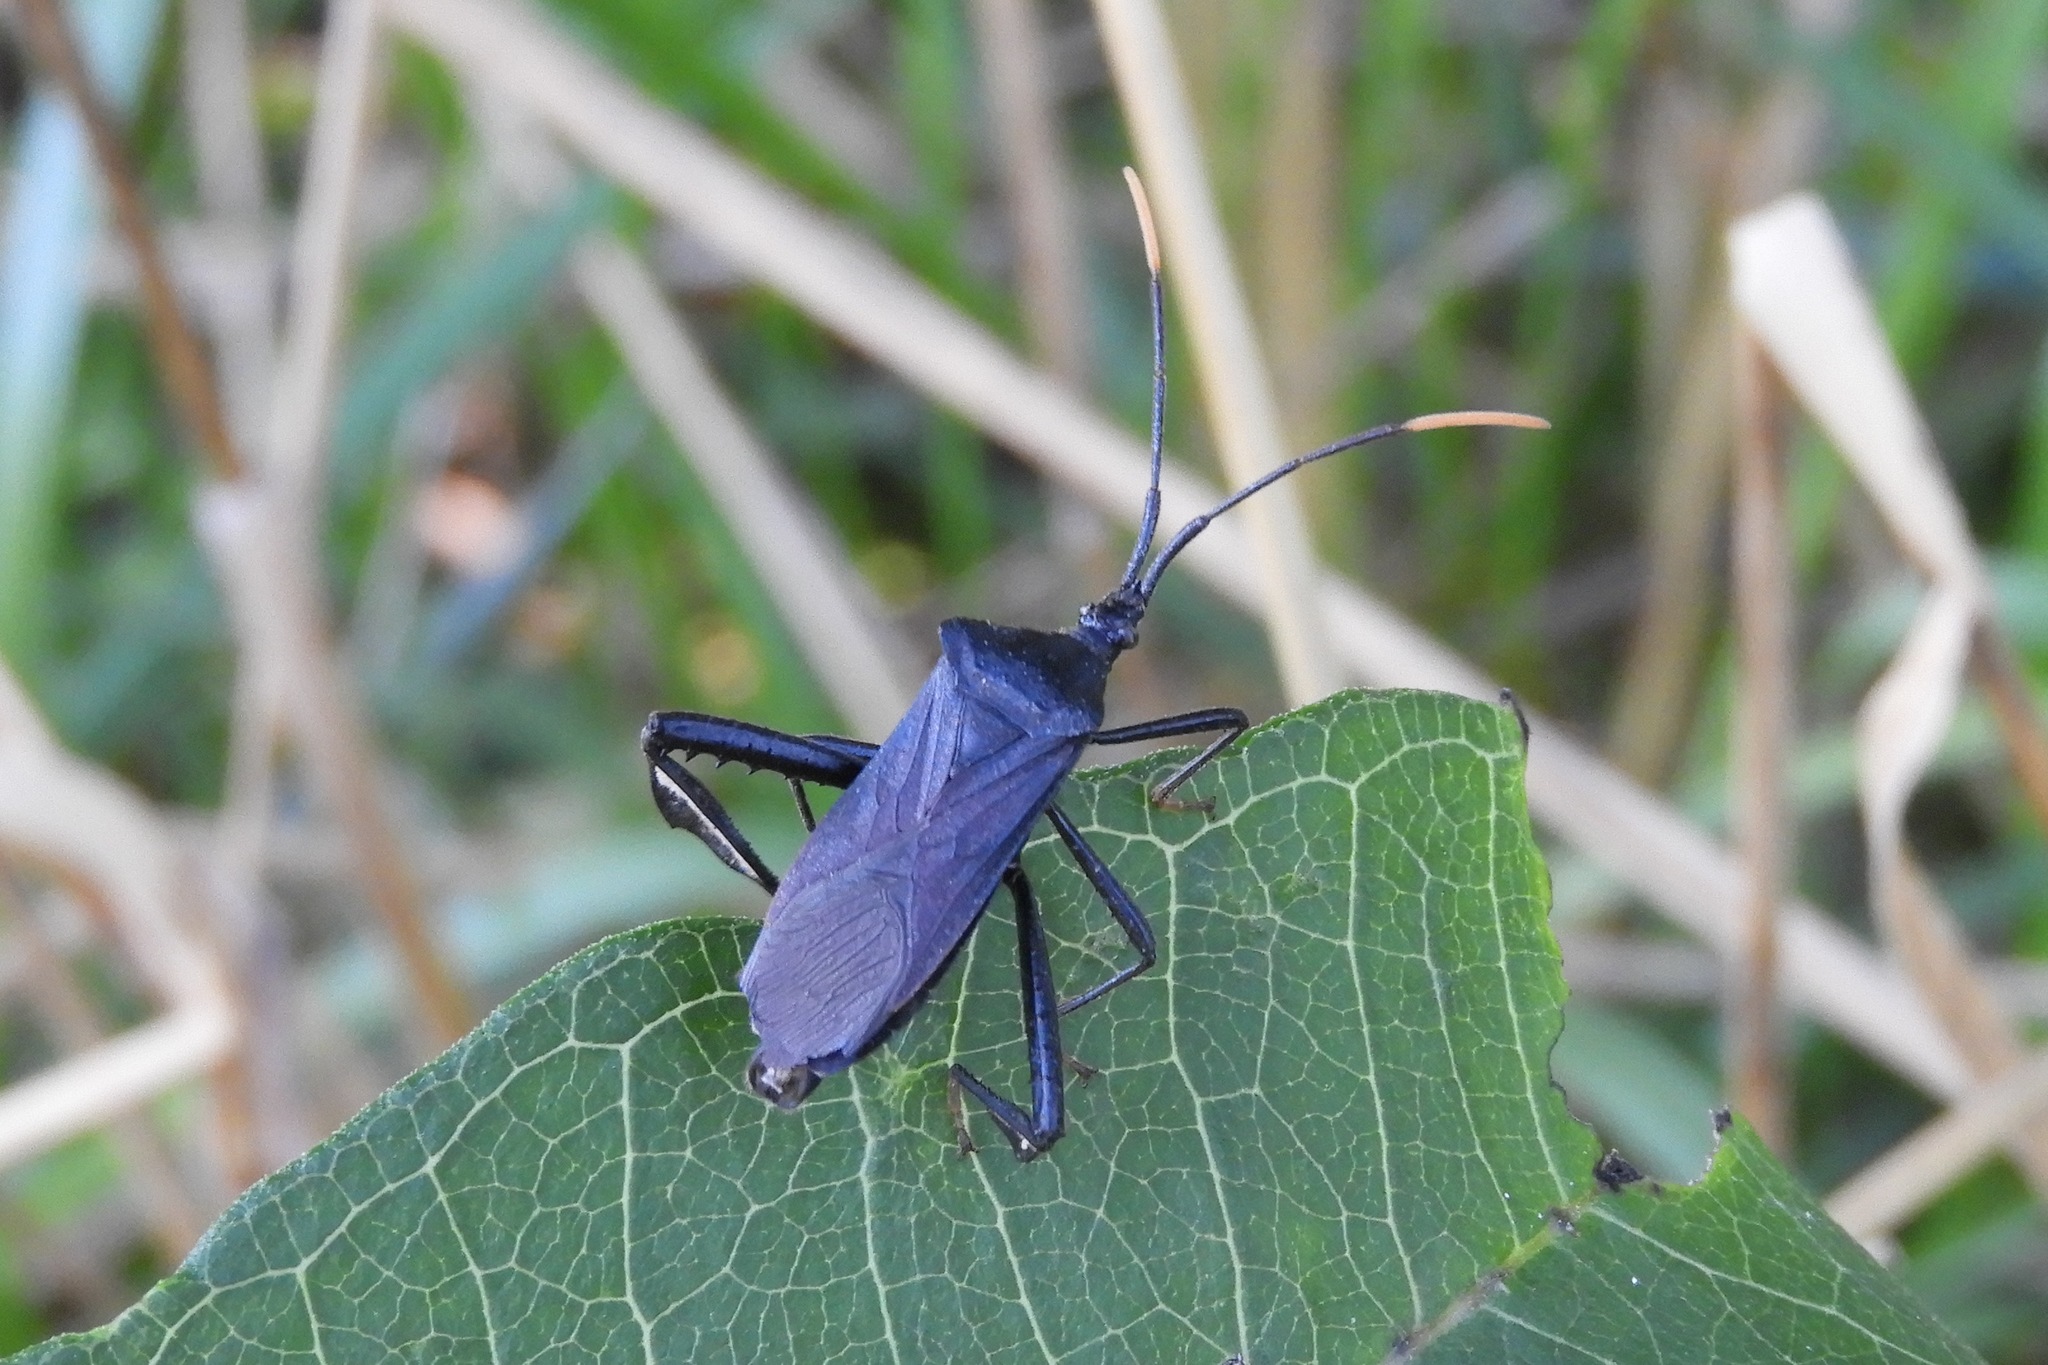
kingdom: Animalia
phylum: Arthropoda
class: Insecta
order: Hemiptera
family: Coreidae
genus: Acanthocephala
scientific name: Acanthocephala terminalis
